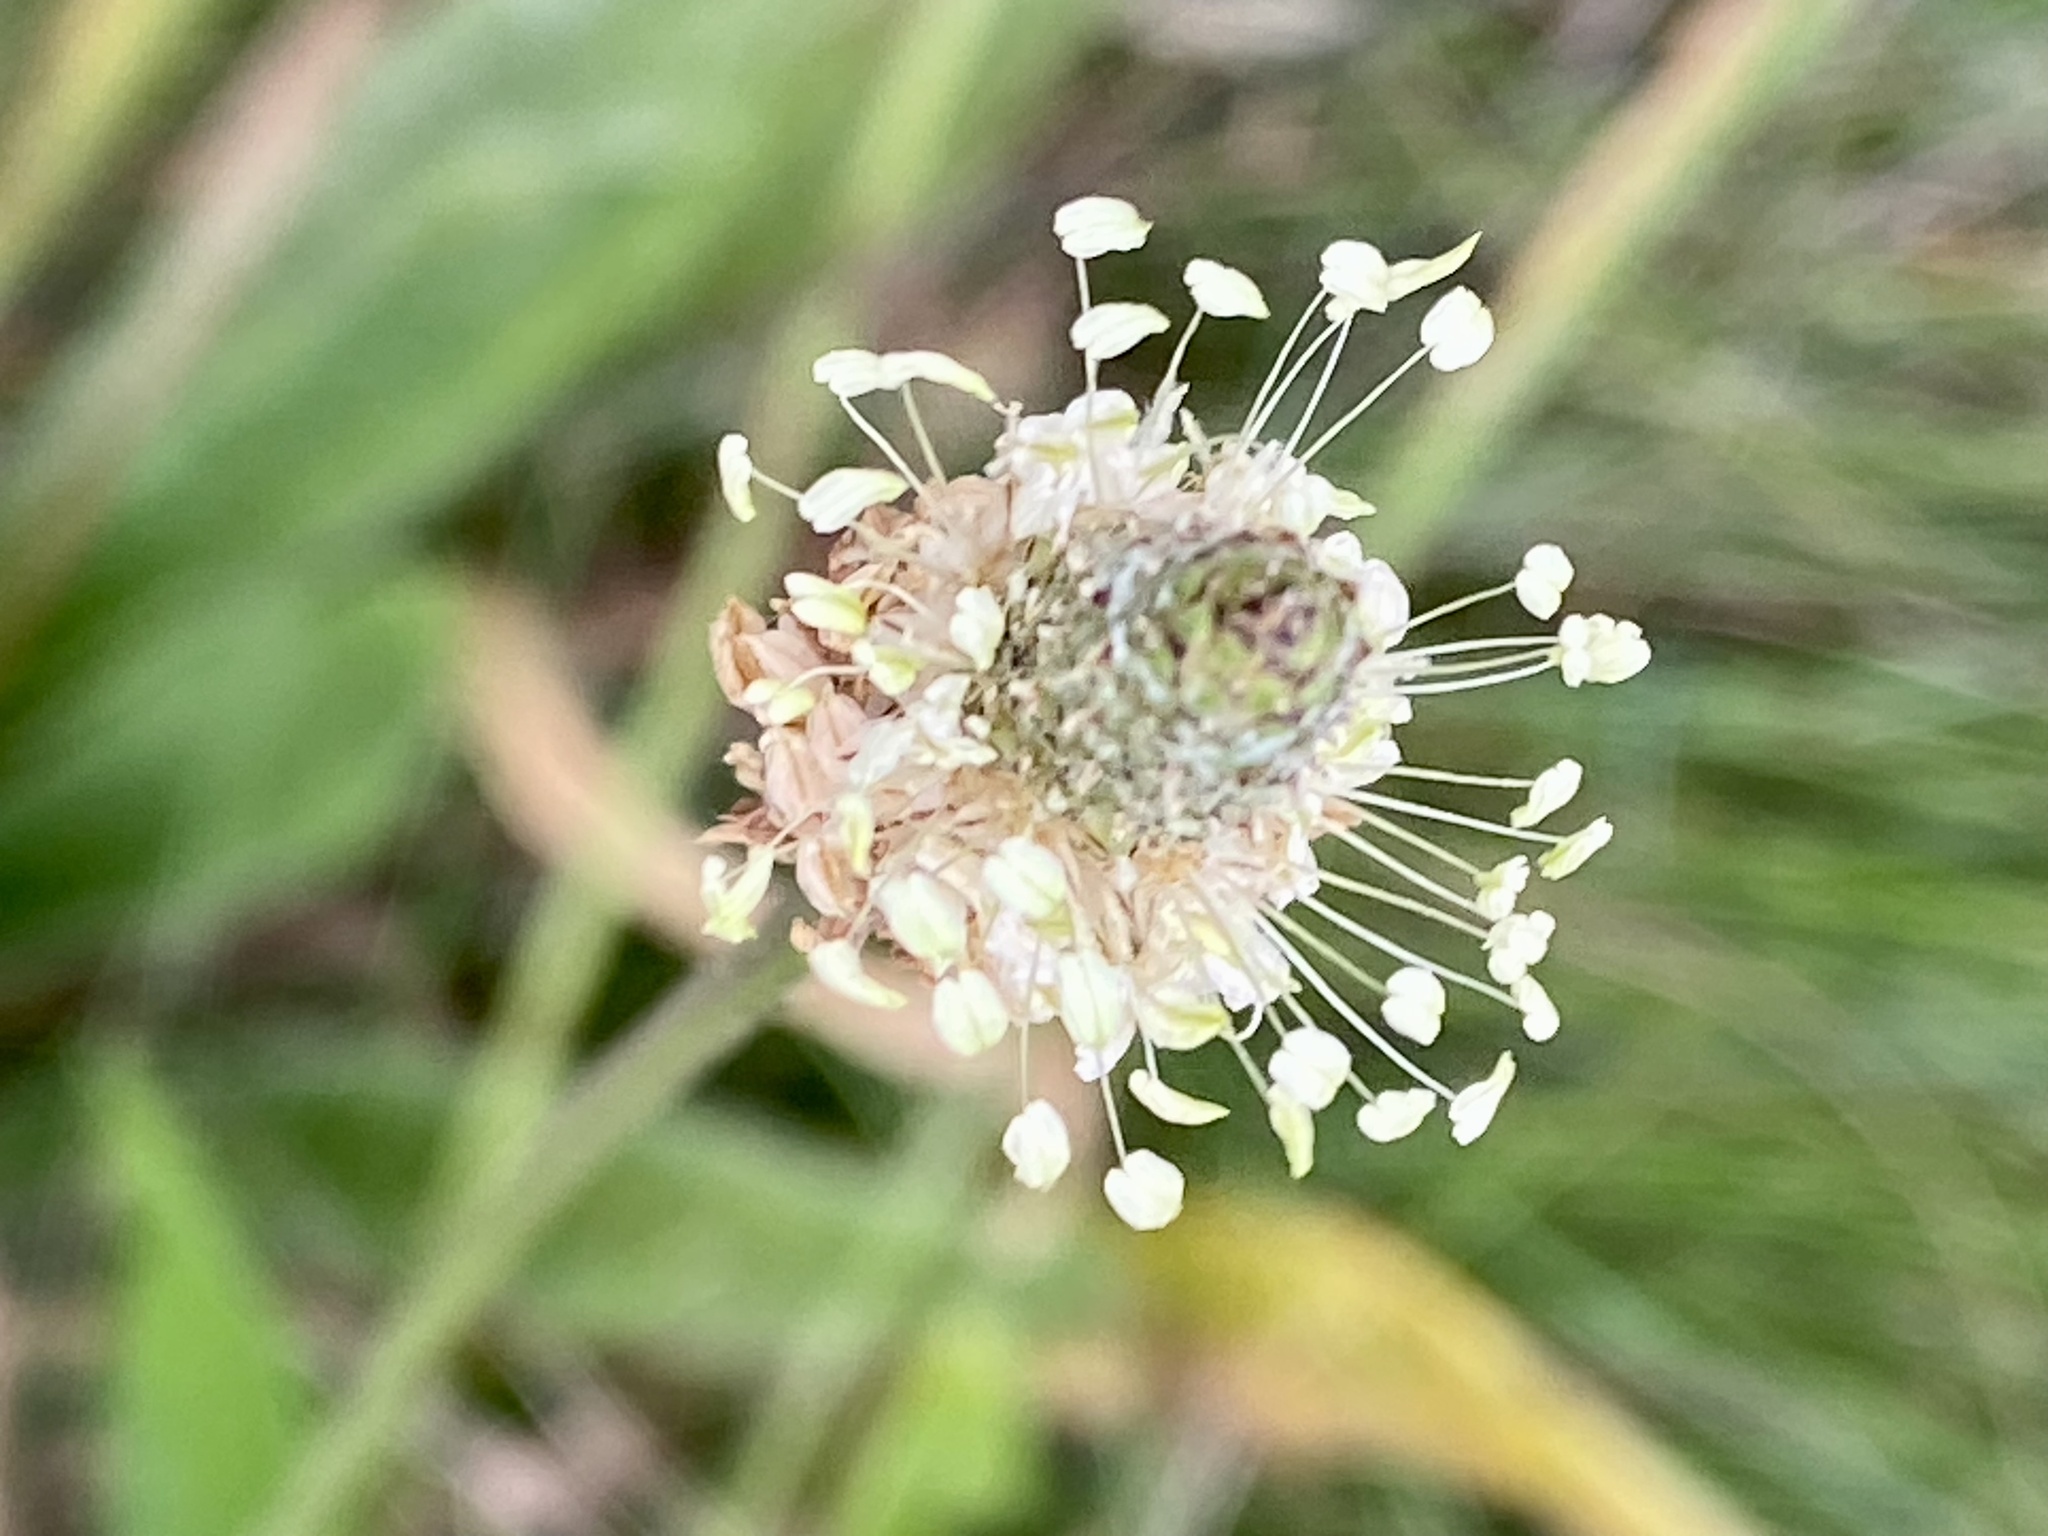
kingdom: Plantae
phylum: Tracheophyta
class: Magnoliopsida
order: Lamiales
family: Plantaginaceae
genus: Plantago
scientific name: Plantago lanceolata
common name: Ribwort plantain
